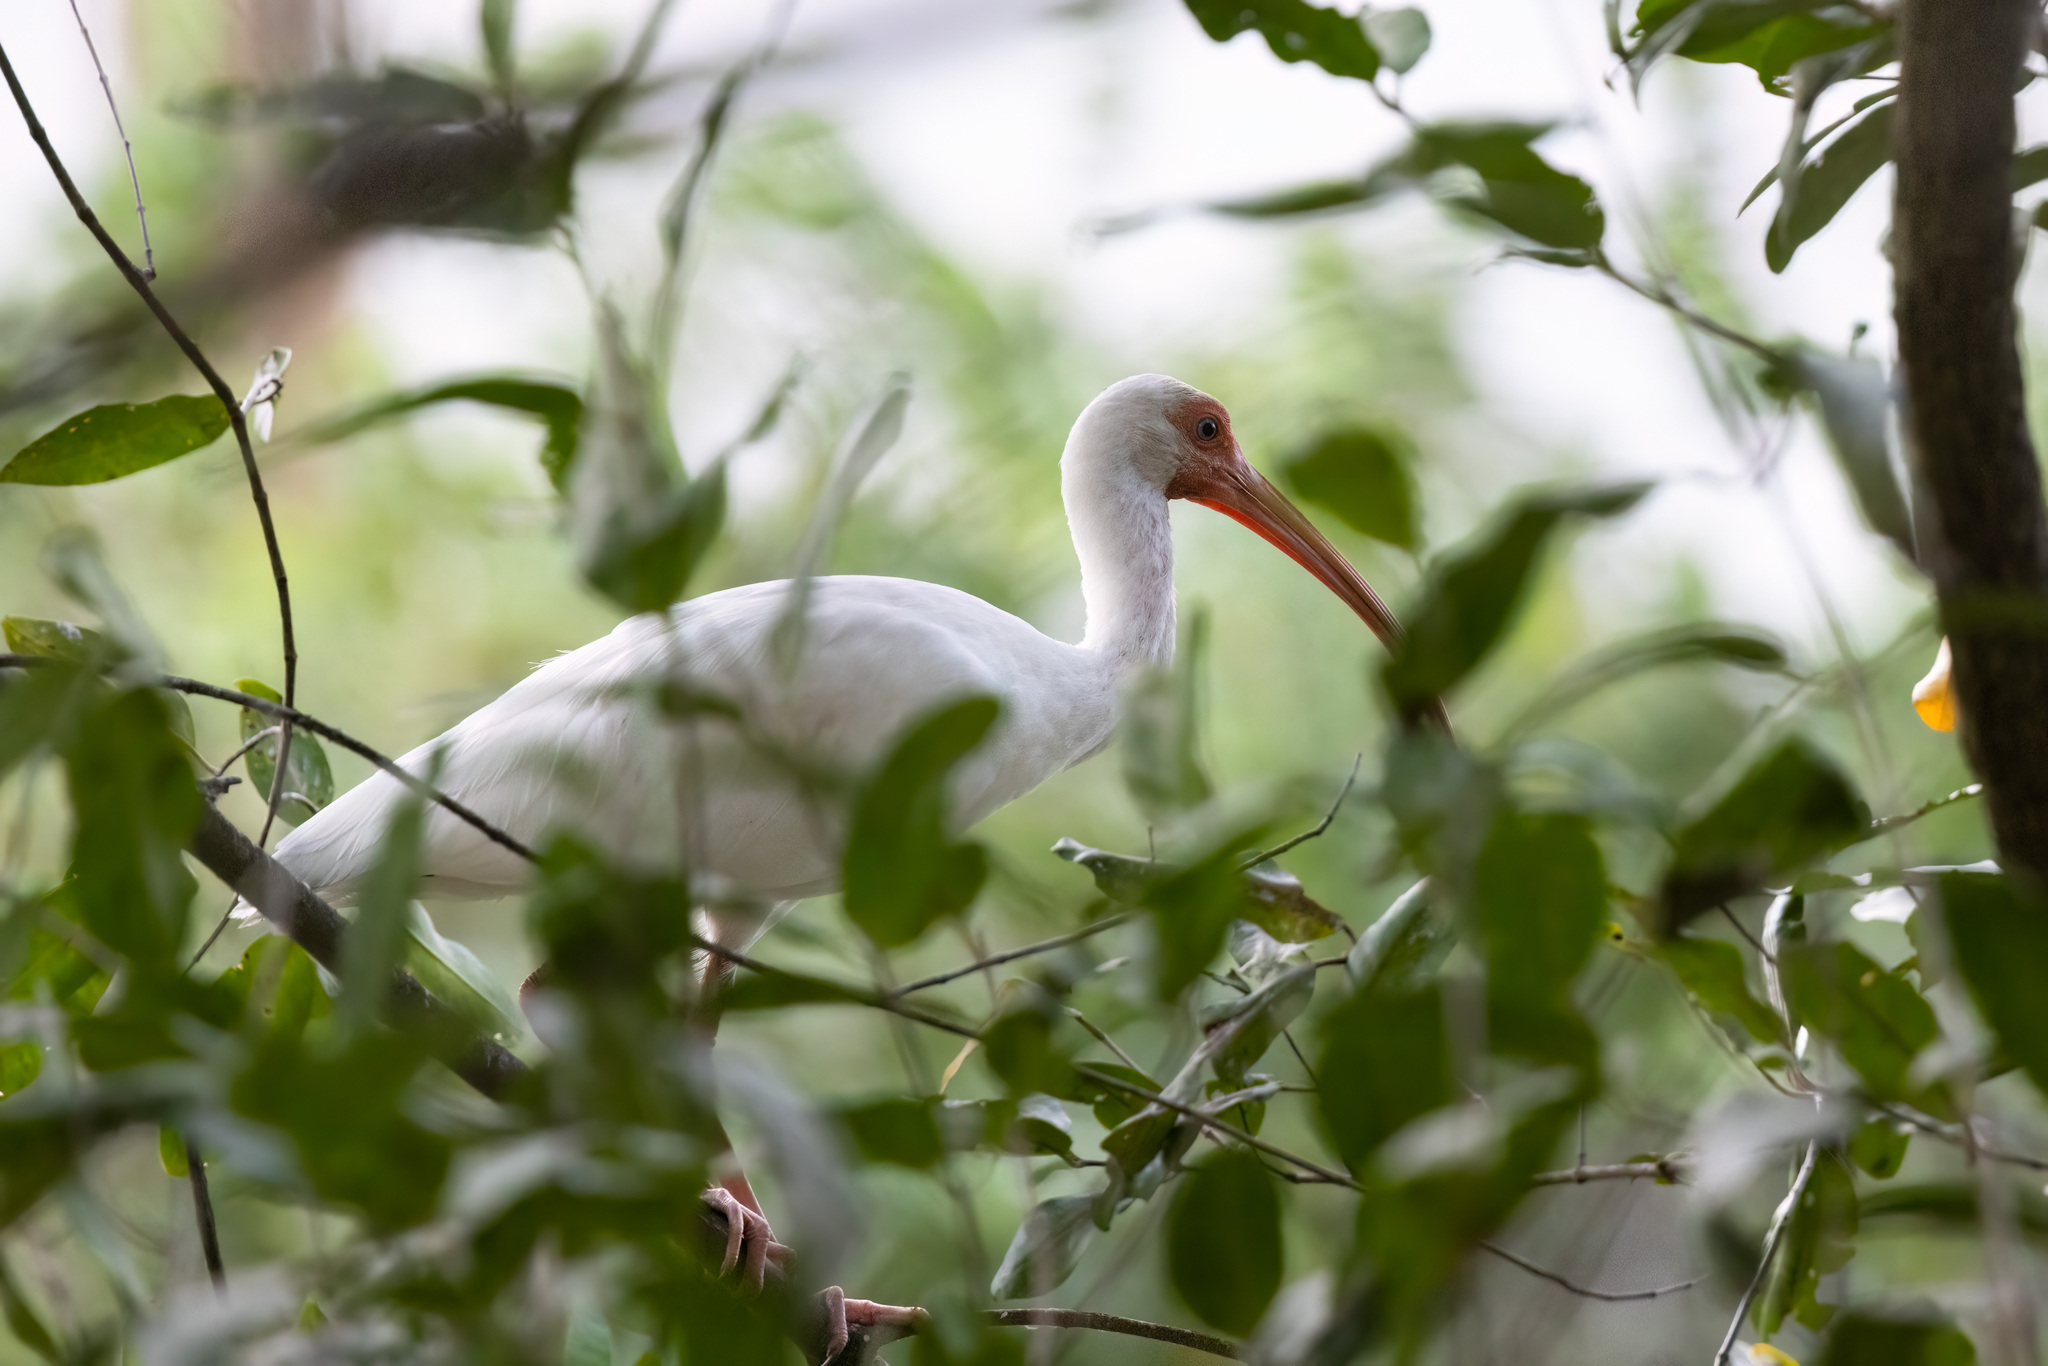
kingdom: Animalia
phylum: Chordata
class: Aves
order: Pelecaniformes
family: Threskiornithidae
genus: Eudocimus
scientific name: Eudocimus albus
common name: White ibis
